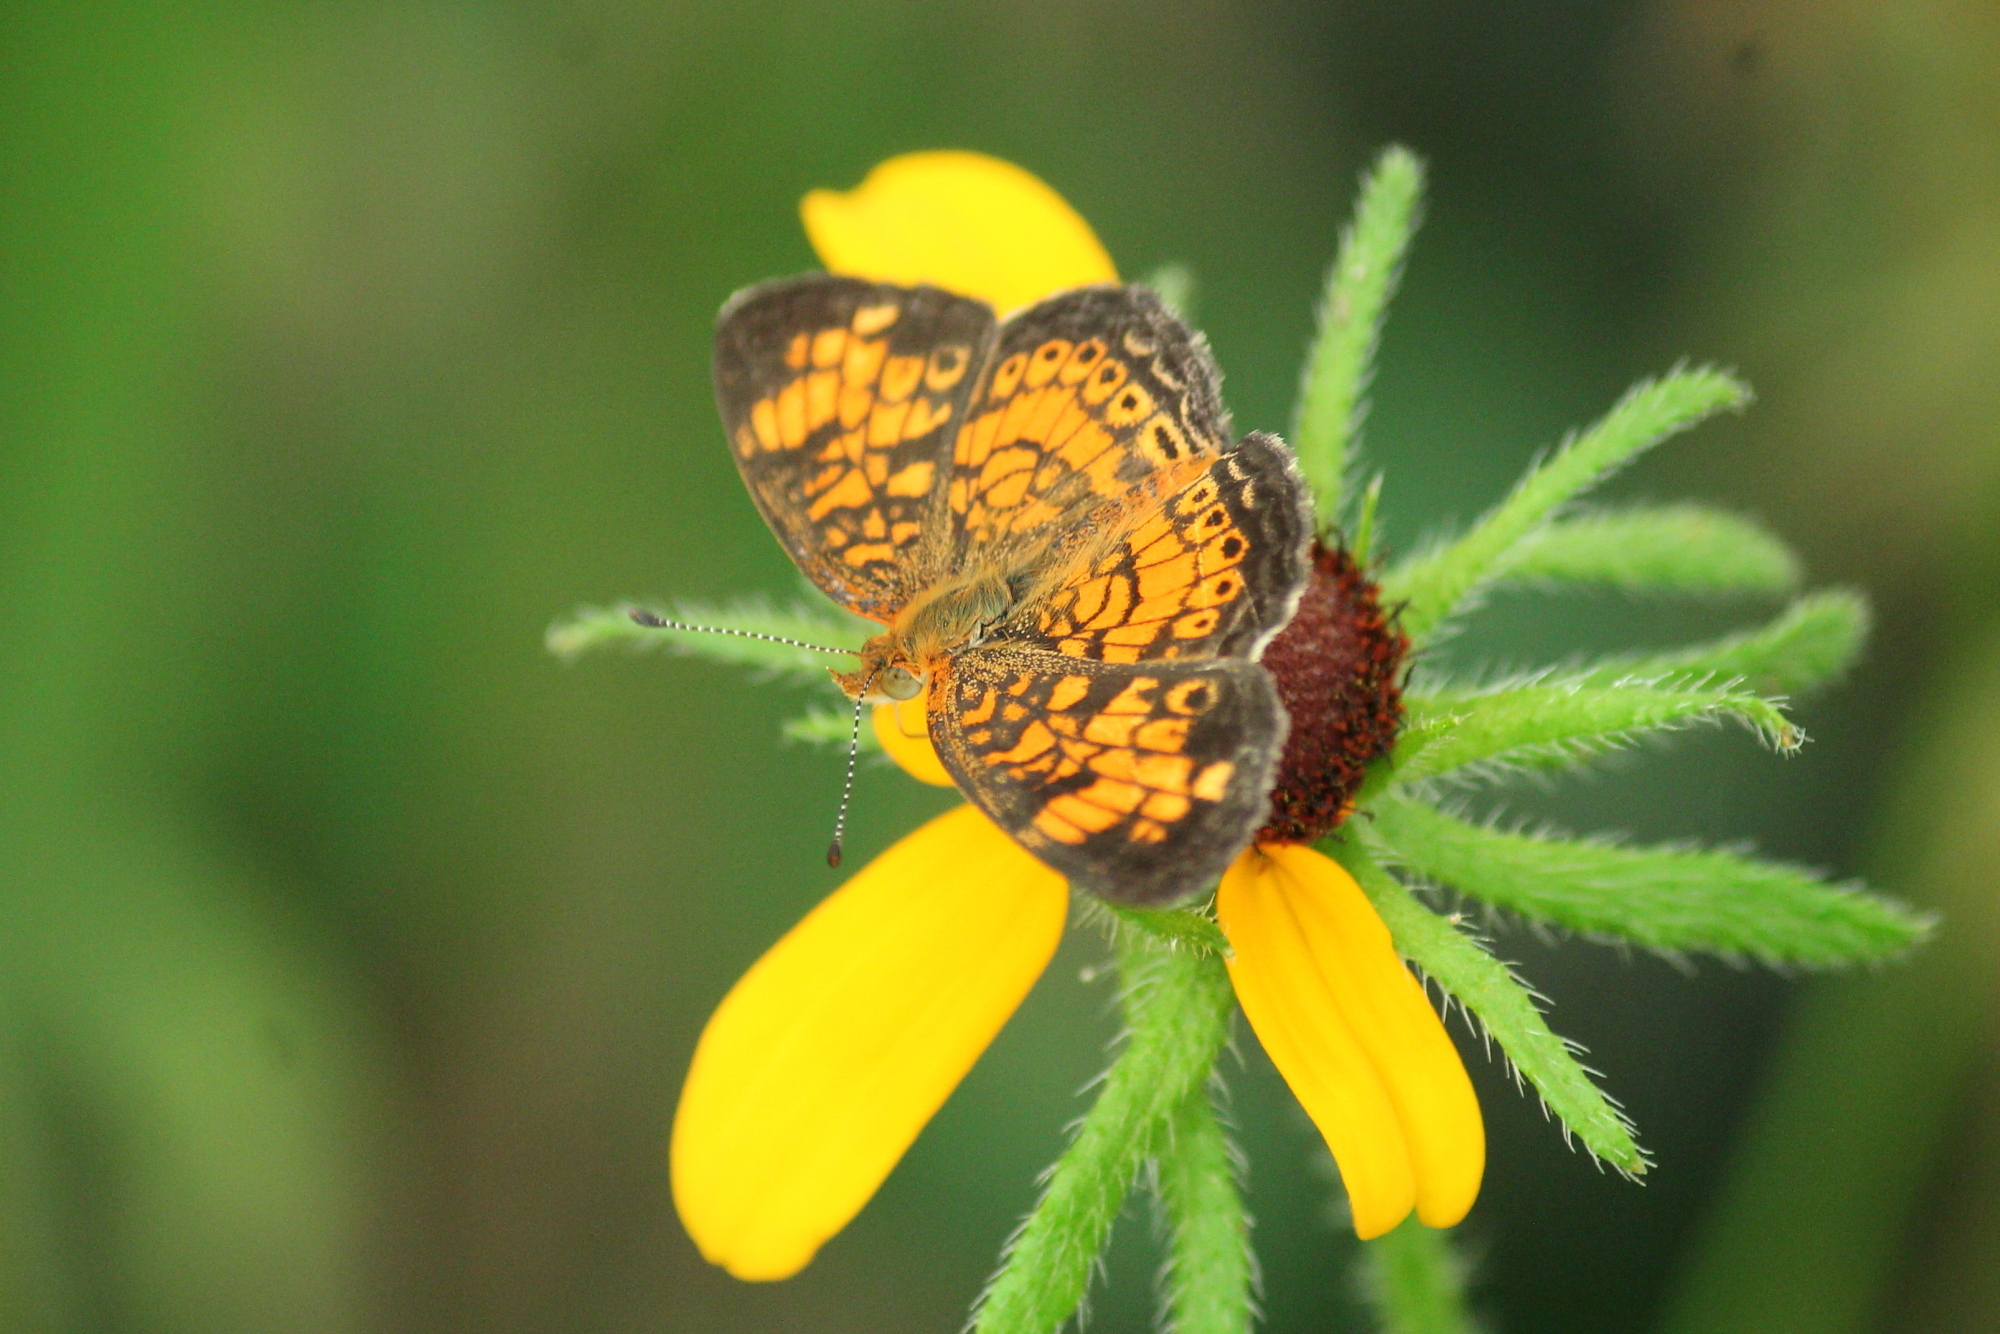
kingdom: Animalia
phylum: Arthropoda
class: Insecta
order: Lepidoptera
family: Nymphalidae
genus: Phyciodes
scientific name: Phyciodes tharos
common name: Pearl crescent
